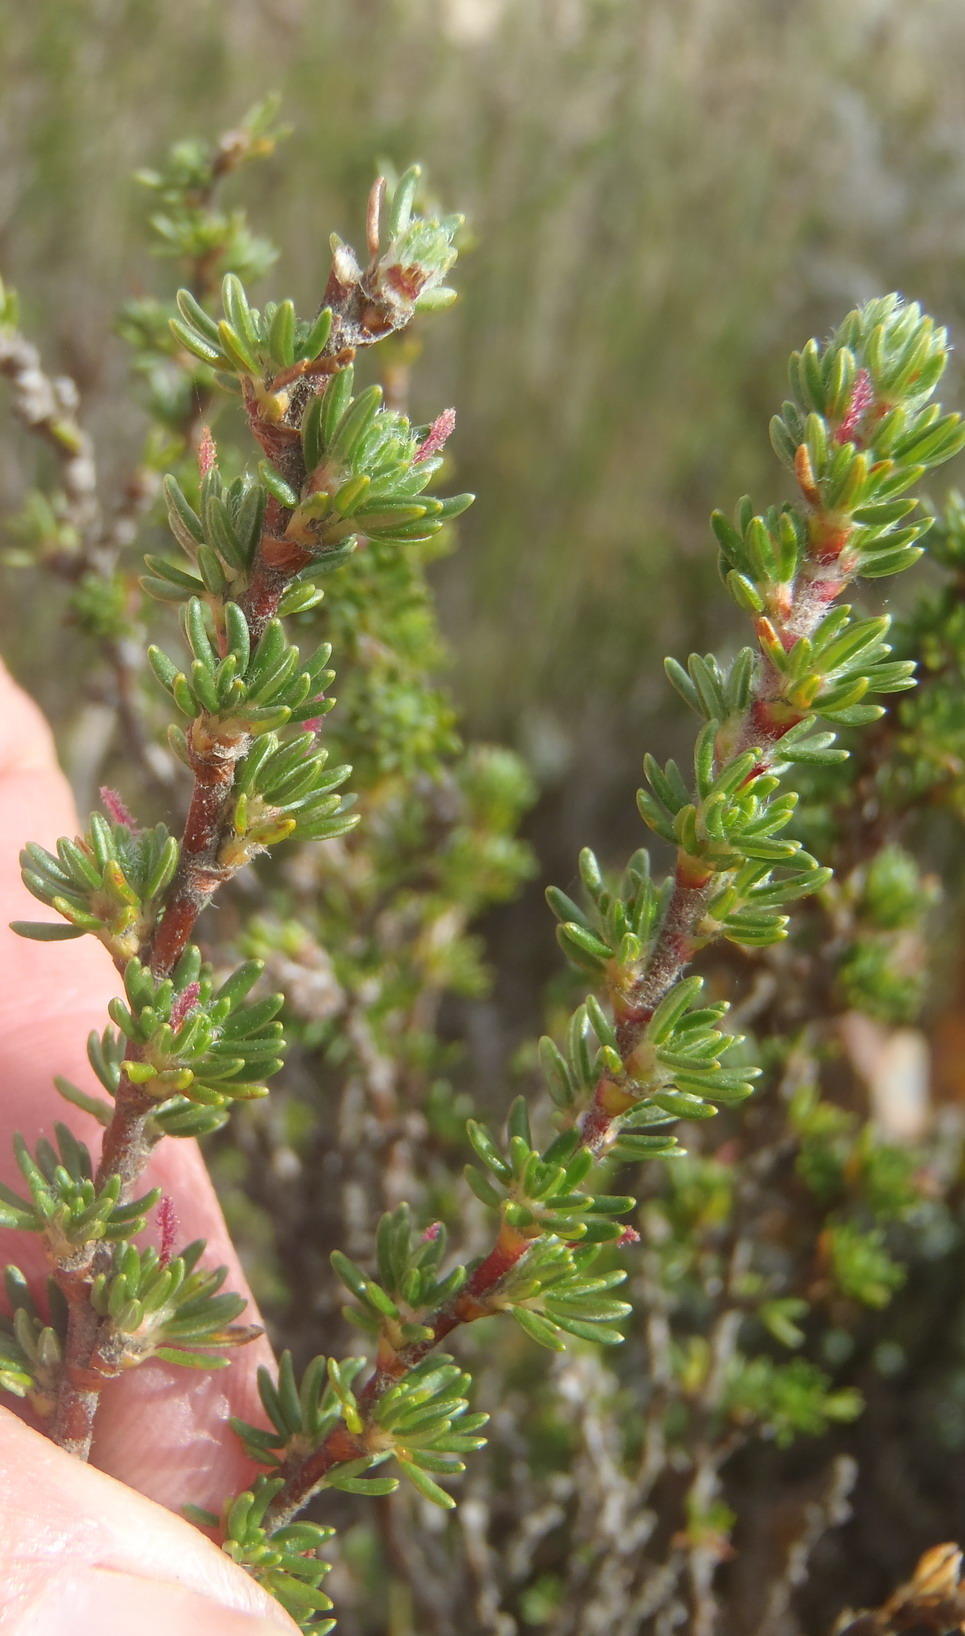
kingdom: Plantae
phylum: Tracheophyta
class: Magnoliopsida
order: Rosales
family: Rosaceae
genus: Cliffortia
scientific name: Cliffortia montana
